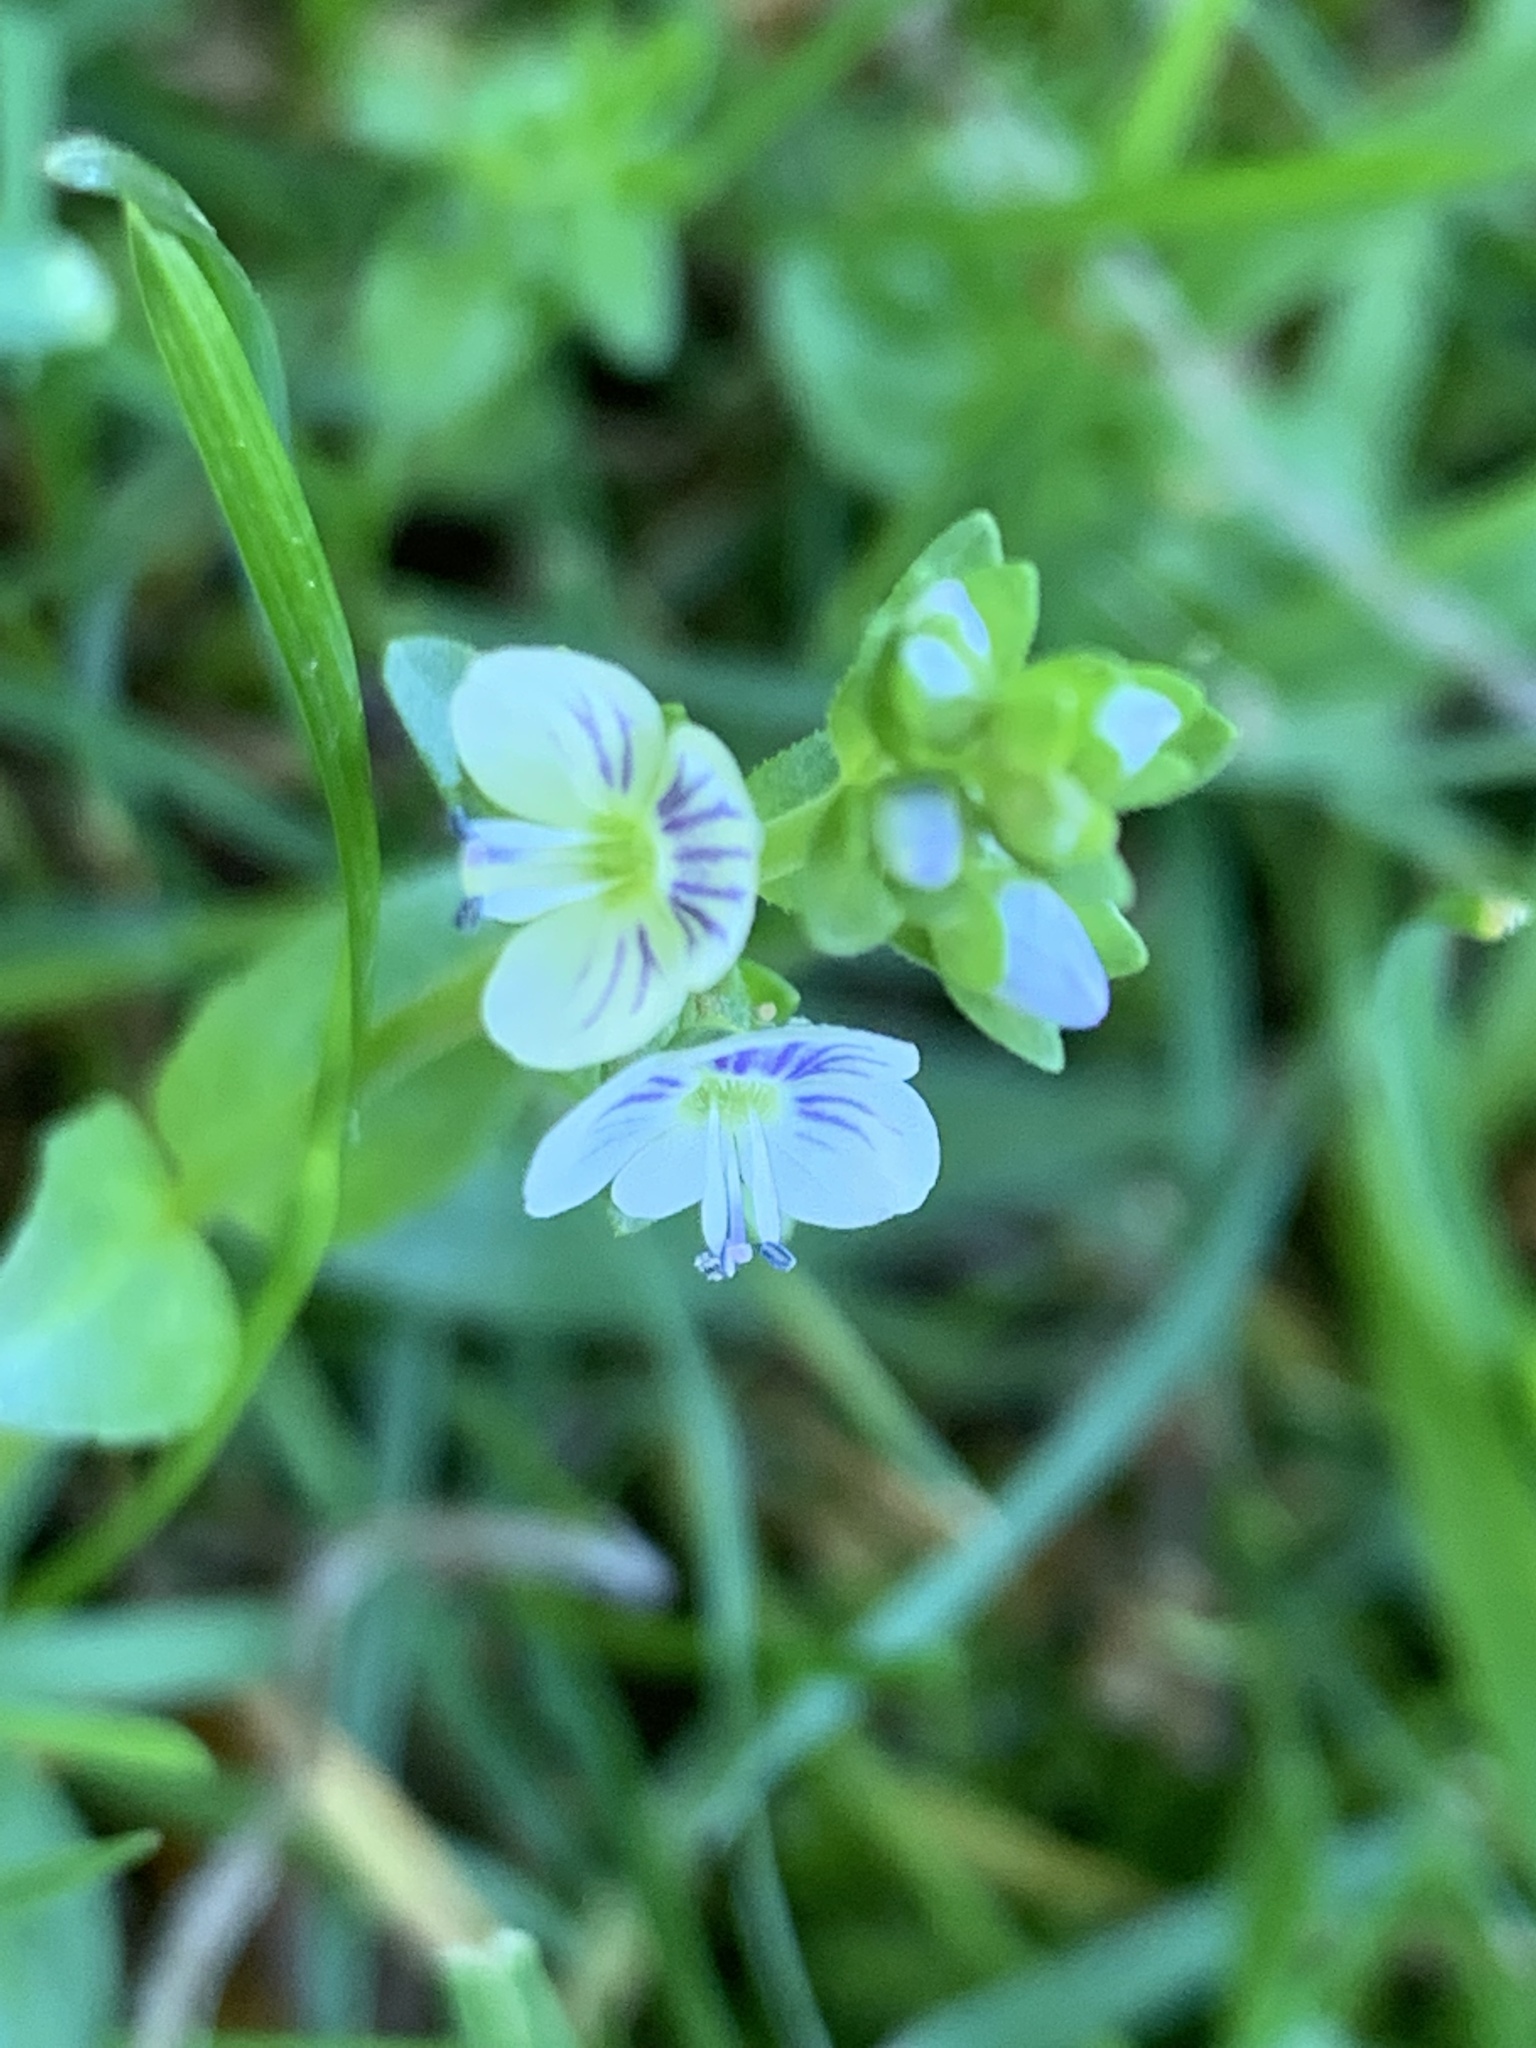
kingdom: Plantae
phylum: Tracheophyta
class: Magnoliopsida
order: Lamiales
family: Plantaginaceae
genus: Veronica
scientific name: Veronica serpyllifolia
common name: Thyme-leaved speedwell
